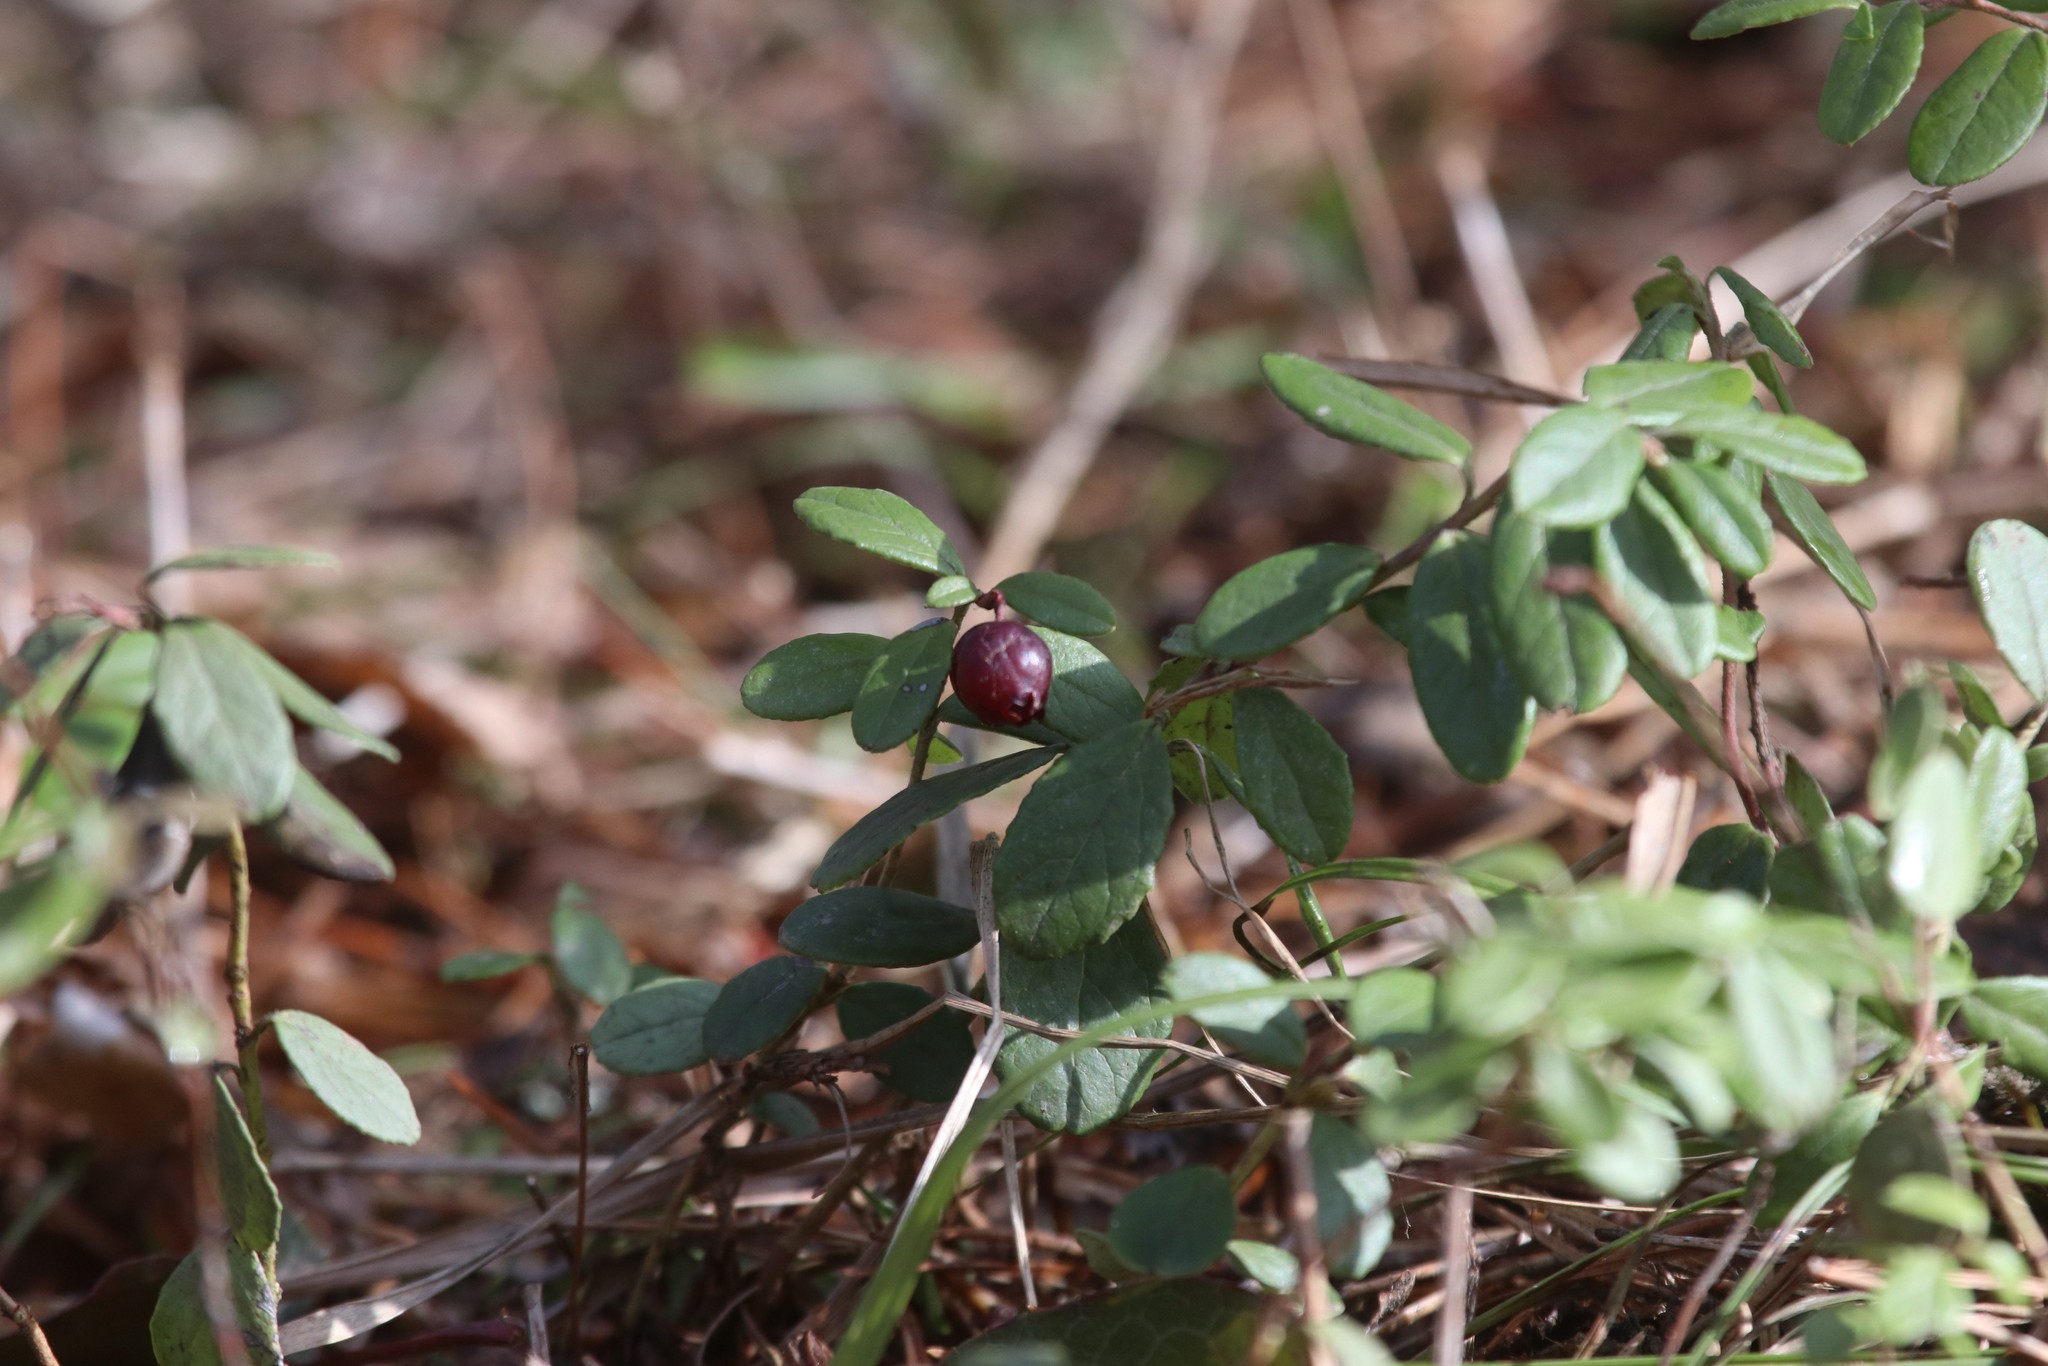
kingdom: Plantae
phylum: Tracheophyta
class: Magnoliopsida
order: Ericales
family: Ericaceae
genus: Vaccinium
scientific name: Vaccinium vitis-idaea
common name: Cowberry
